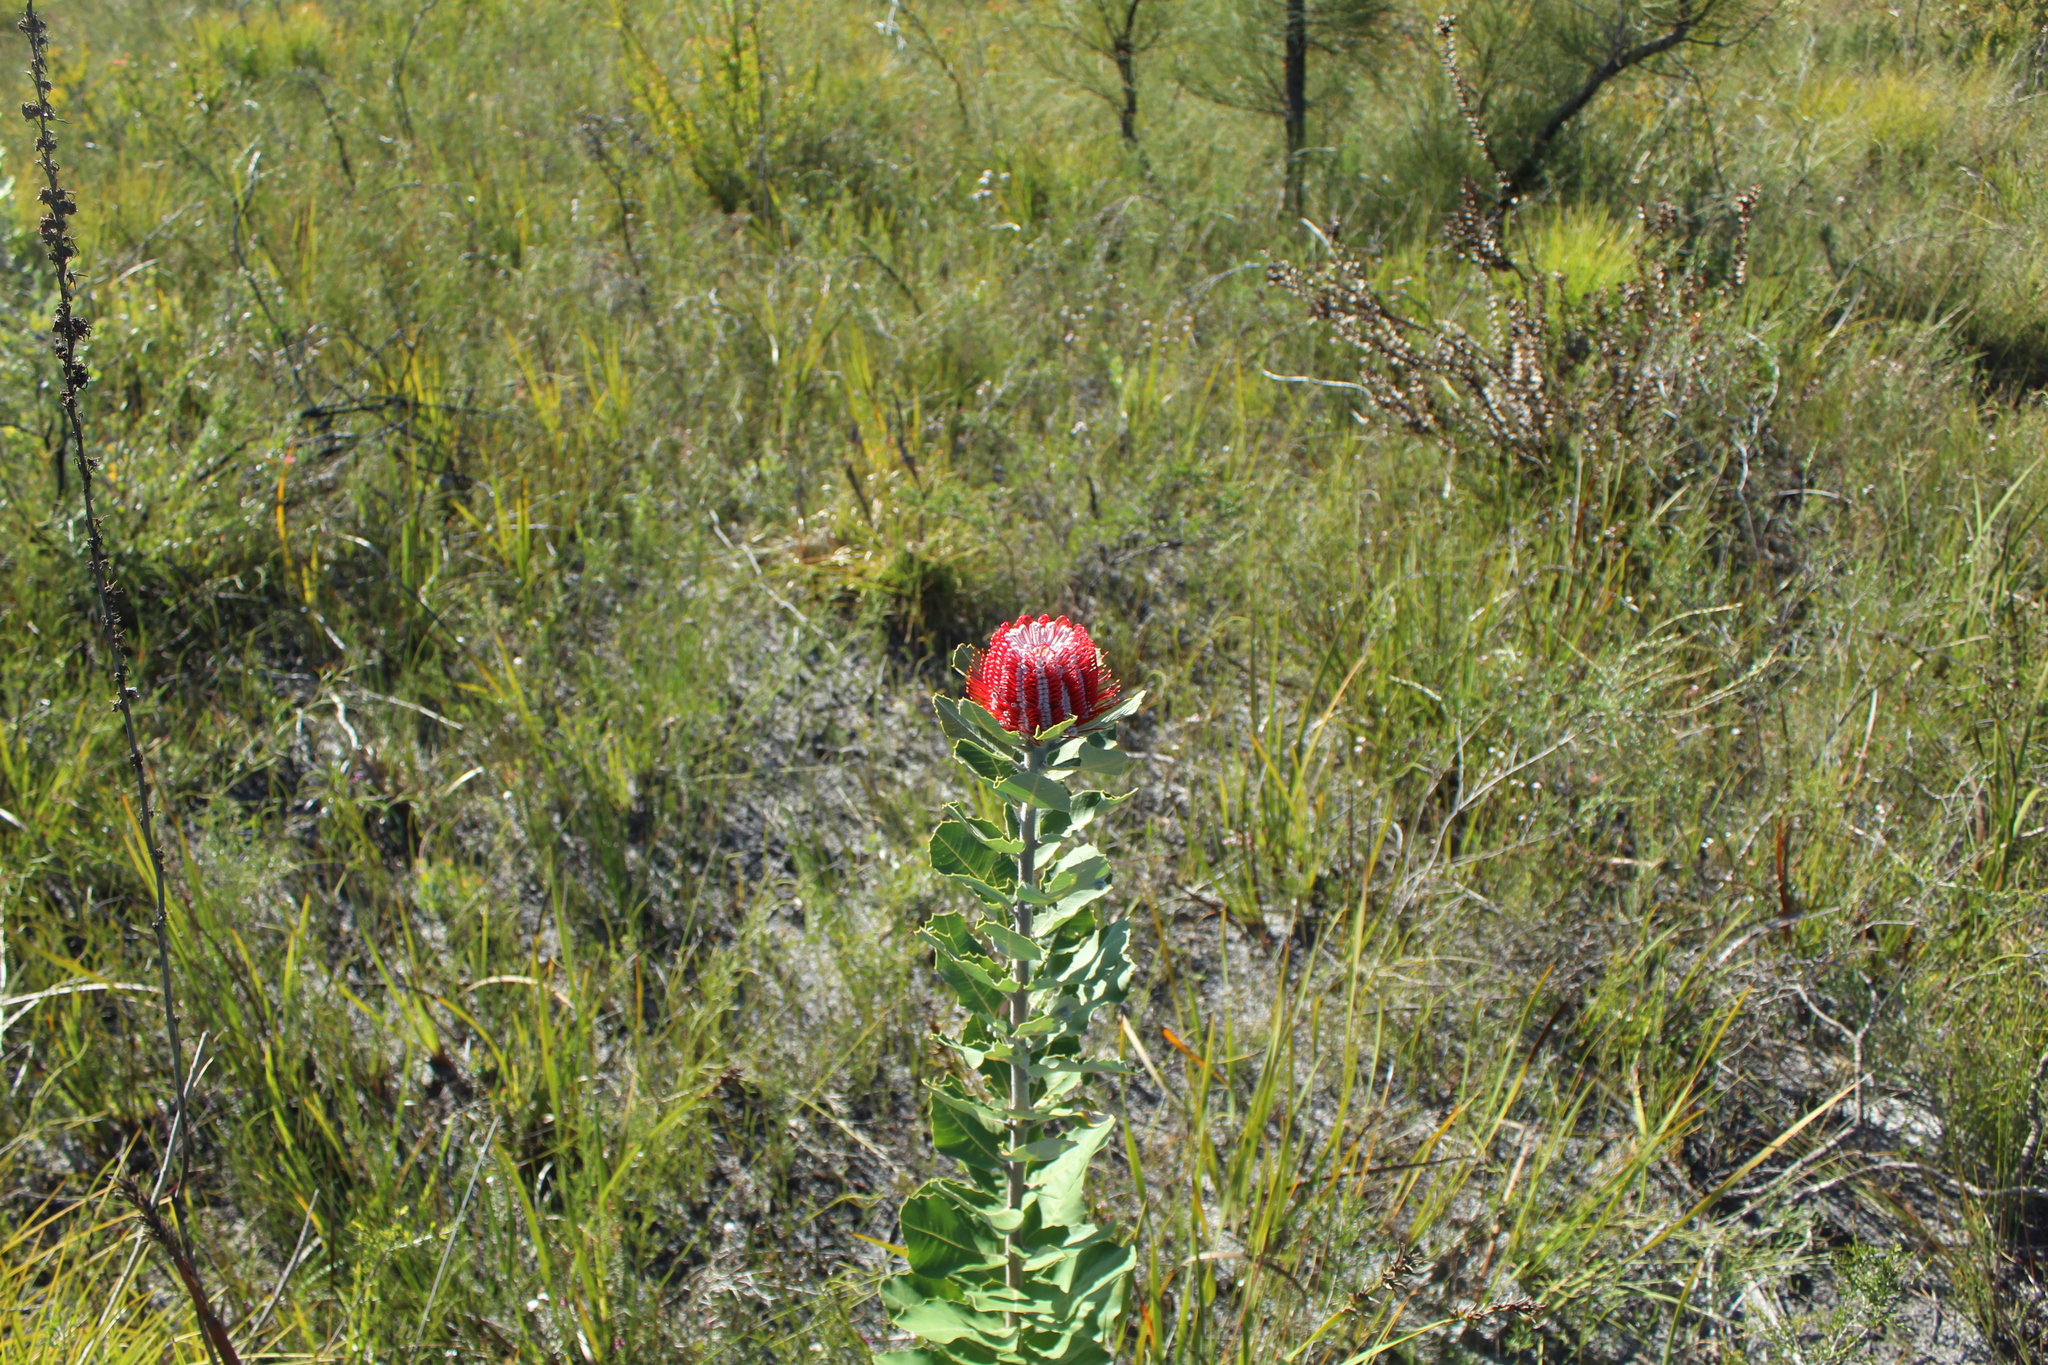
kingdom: Plantae
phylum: Tracheophyta
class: Magnoliopsida
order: Proteales
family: Proteaceae
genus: Banksia
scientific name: Banksia coccinea
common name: Scarlet banksia
